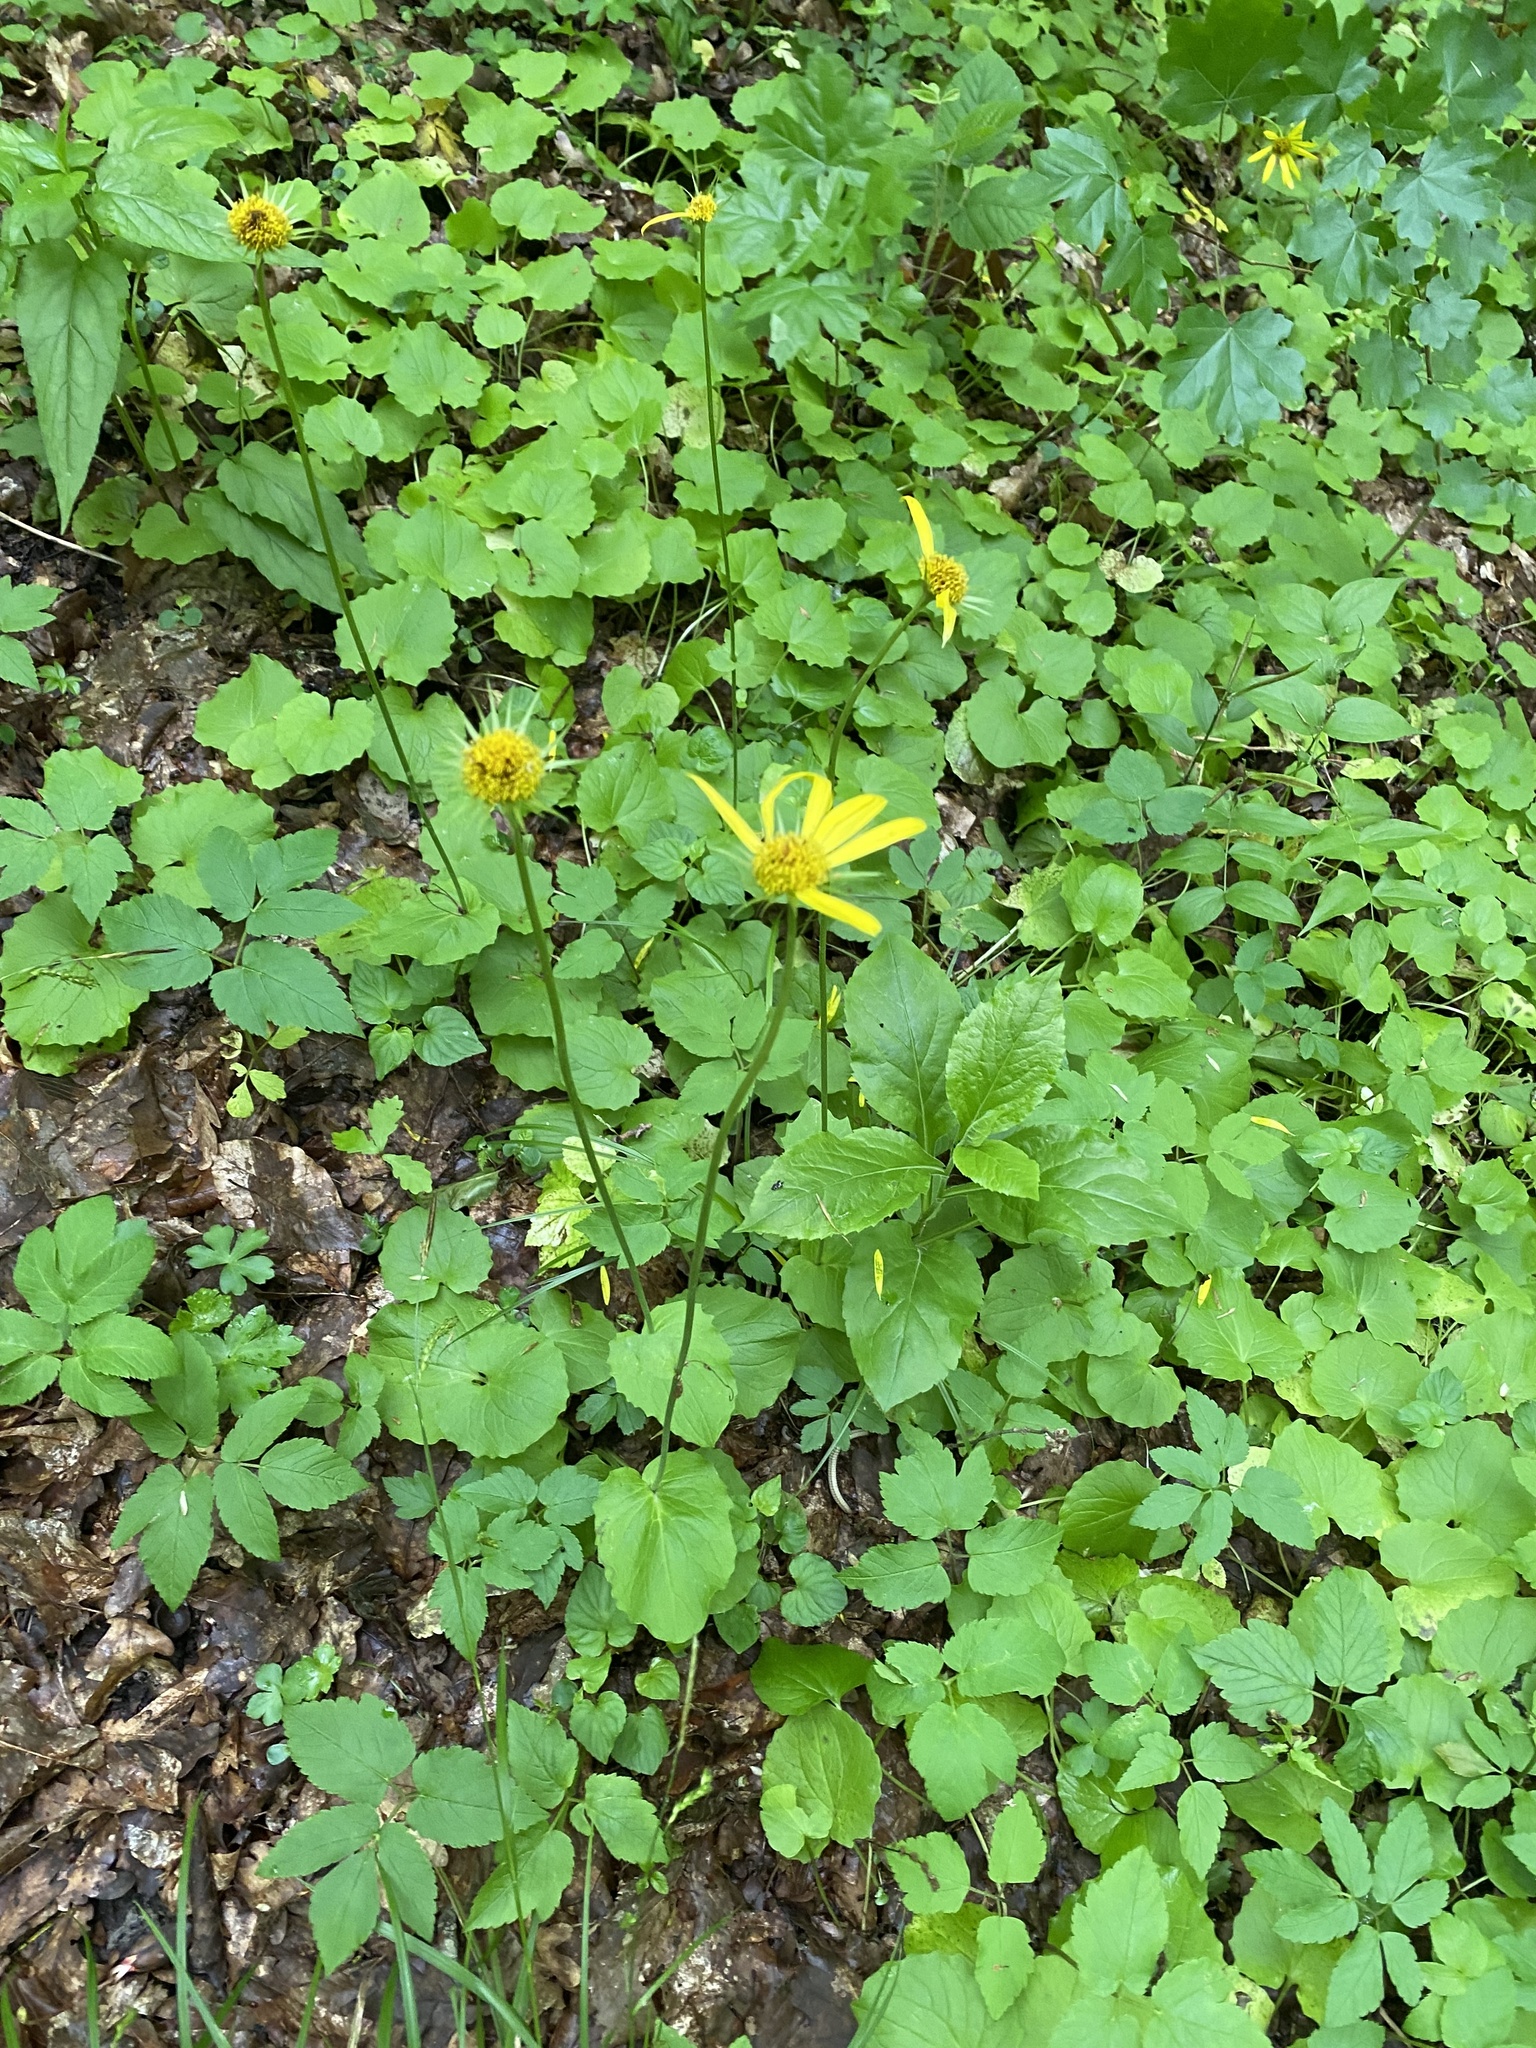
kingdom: Plantae
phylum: Tracheophyta
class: Magnoliopsida
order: Asterales
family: Asteraceae
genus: Doronicum
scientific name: Doronicum
